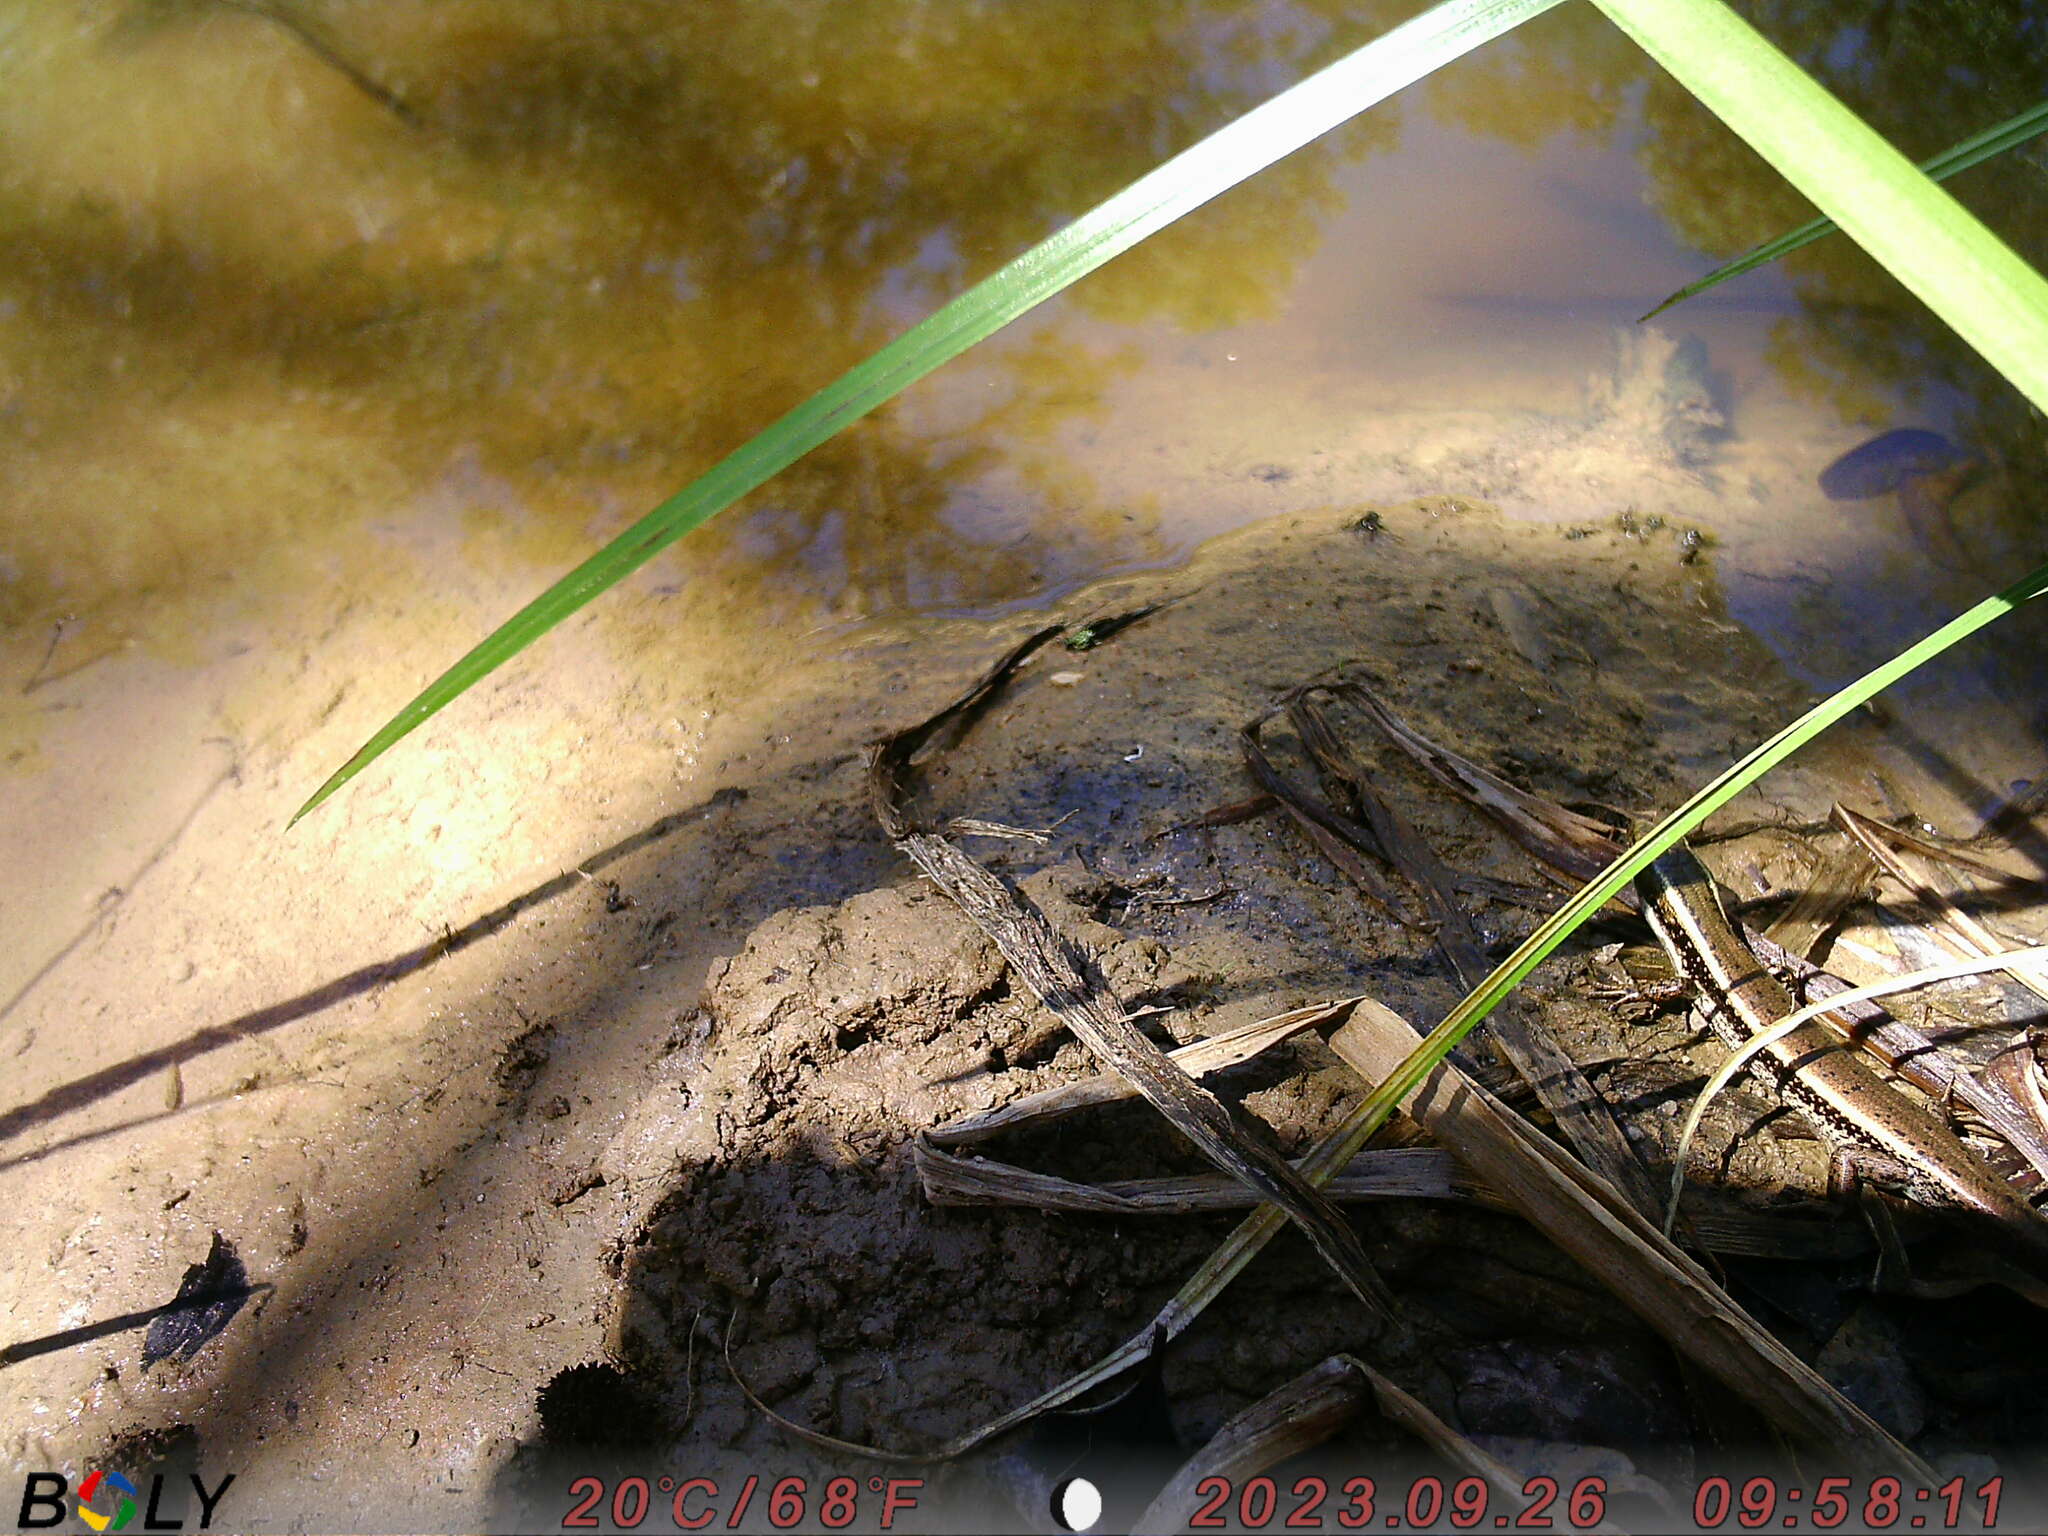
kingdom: Animalia
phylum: Chordata
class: Squamata
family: Scincidae
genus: Eulamprus
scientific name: Eulamprus quoyii
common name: Eastern water skink
